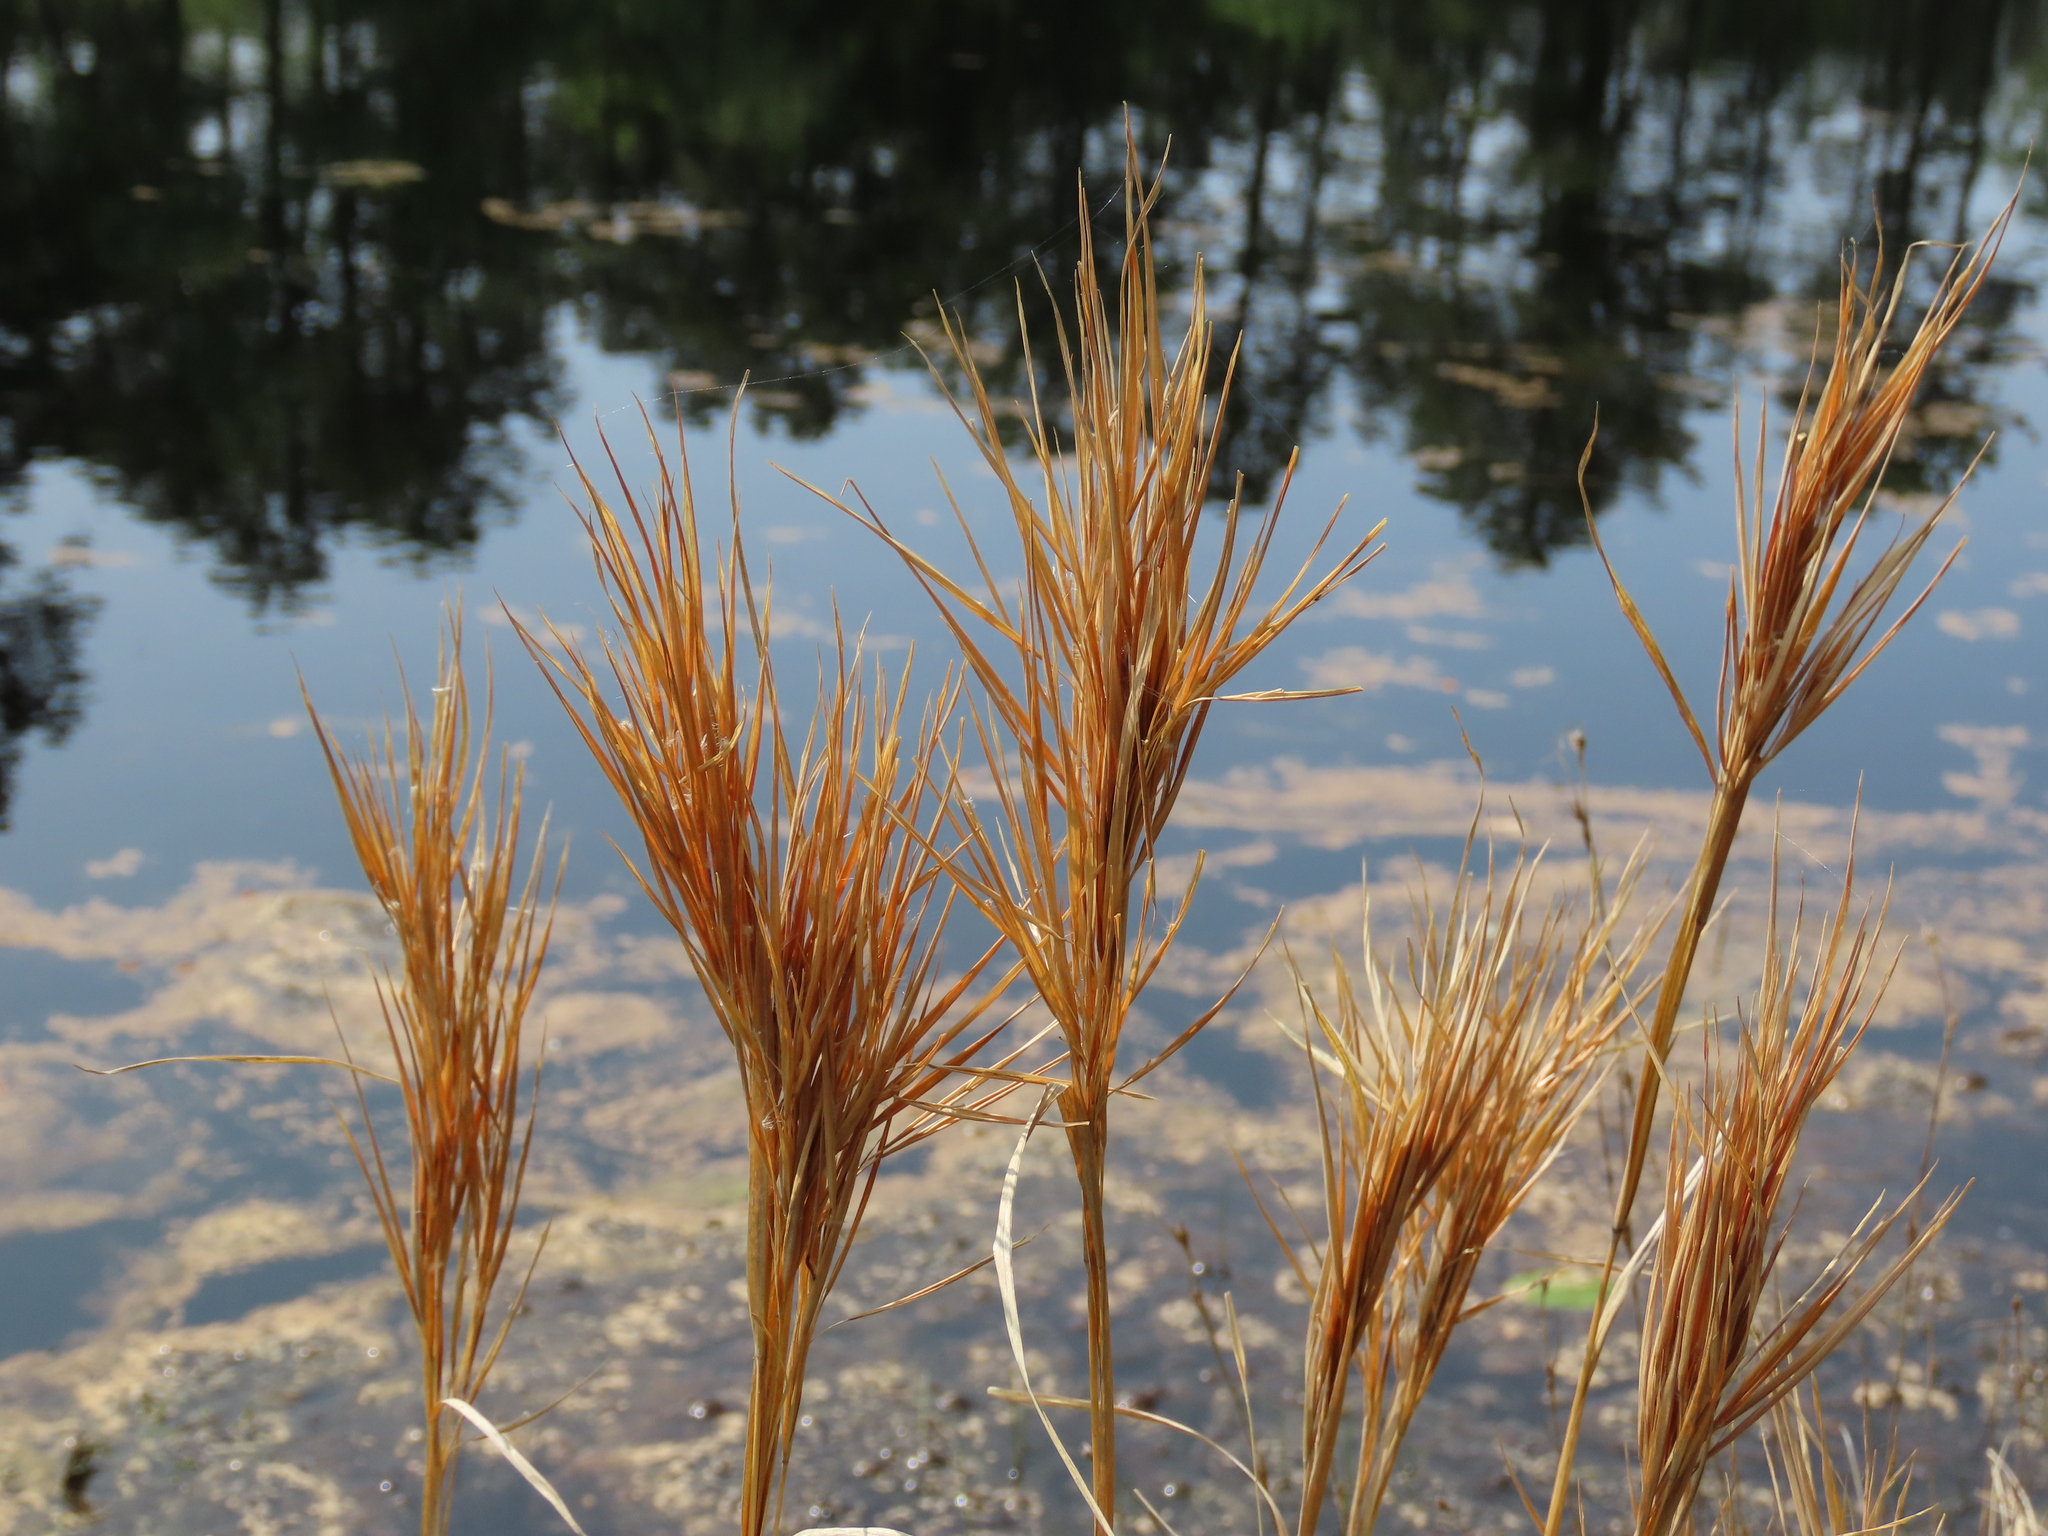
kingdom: Plantae
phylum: Tracheophyta
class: Liliopsida
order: Poales
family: Poaceae
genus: Andropogon
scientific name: Andropogon glomeratus
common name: Bushy beard grass
